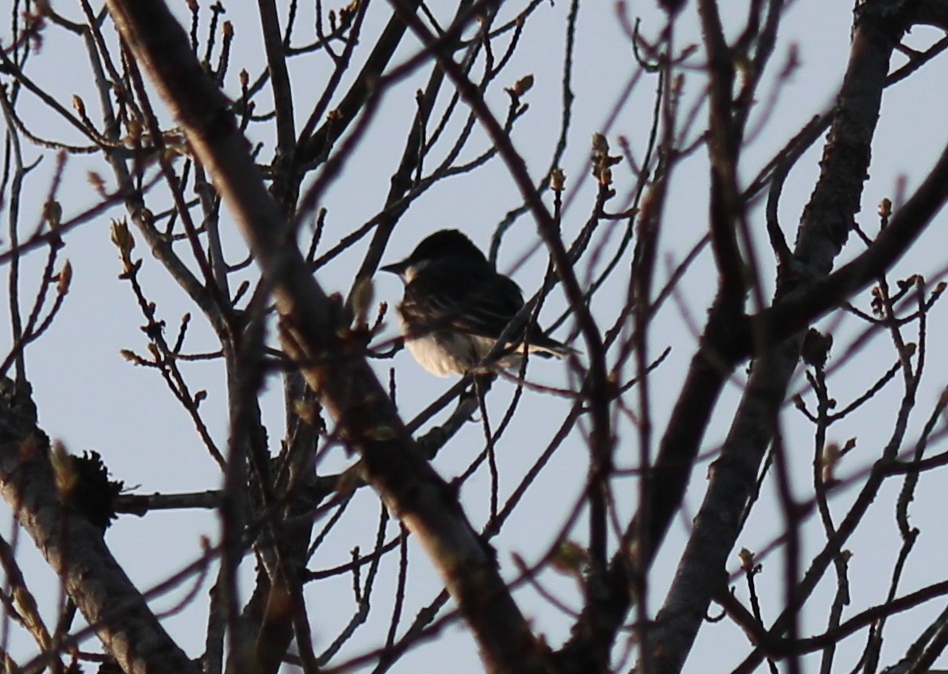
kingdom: Animalia
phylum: Chordata
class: Aves
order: Passeriformes
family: Tyrannidae
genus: Tyrannus
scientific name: Tyrannus tyrannus
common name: Eastern kingbird
